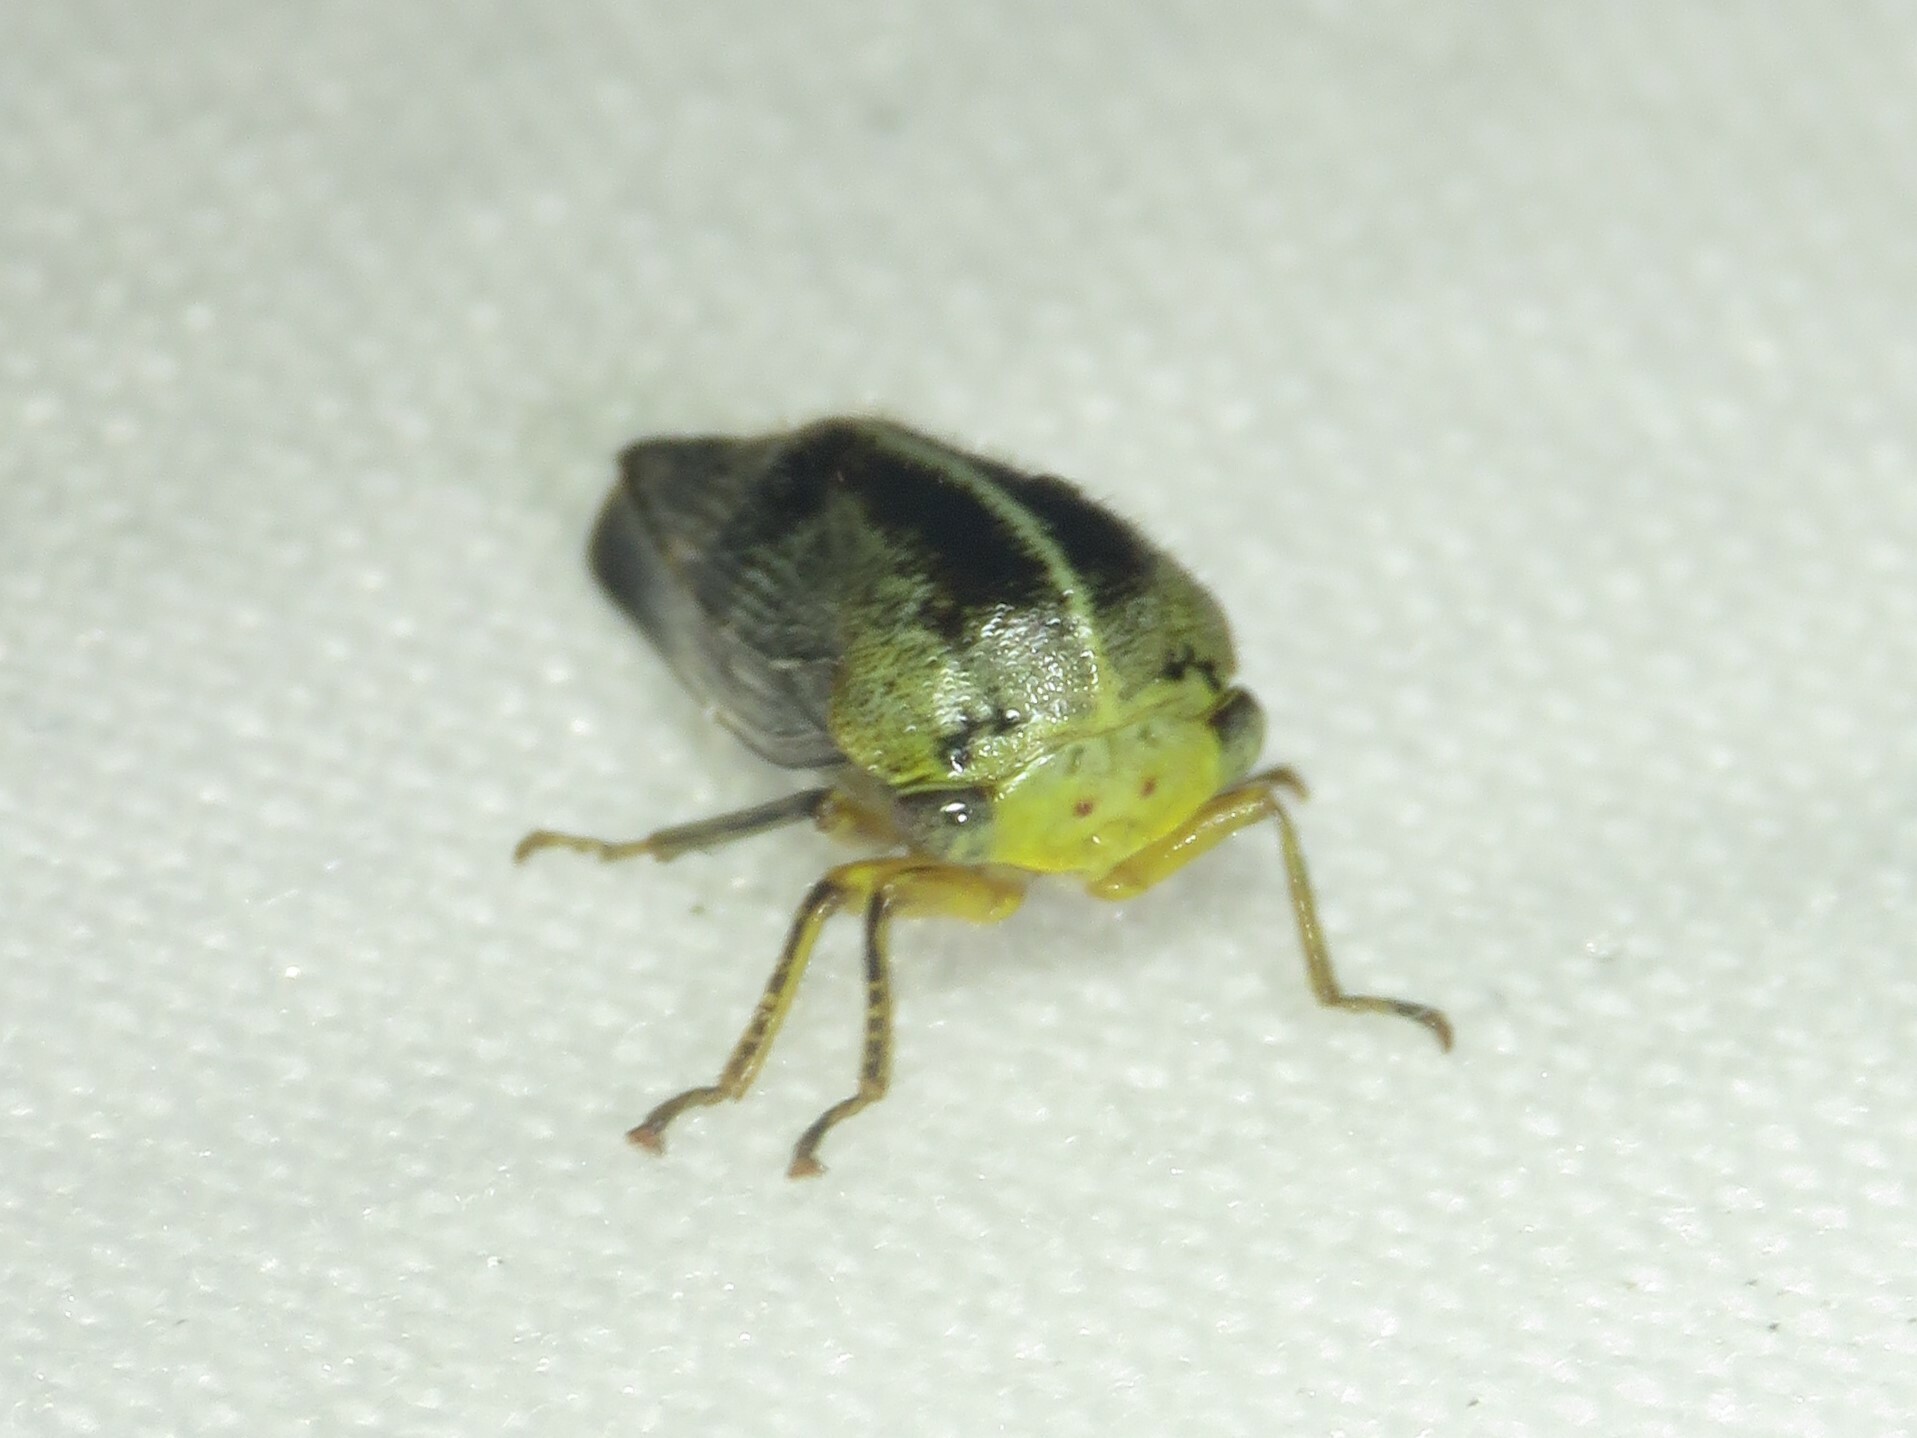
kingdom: Animalia
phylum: Arthropoda
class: Insecta
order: Hemiptera
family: Membracidae
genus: Carynota
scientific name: Carynota mera
